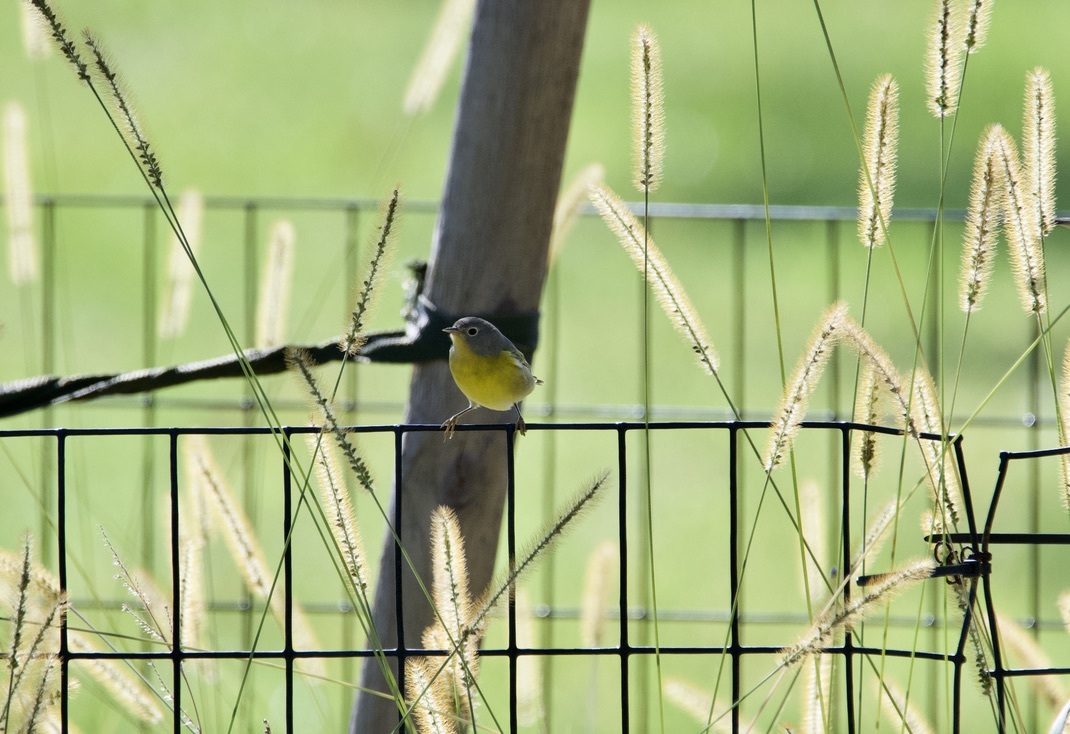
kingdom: Animalia
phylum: Chordata
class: Aves
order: Passeriformes
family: Parulidae
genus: Leiothlypis
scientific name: Leiothlypis ruficapilla
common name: Nashville warbler
